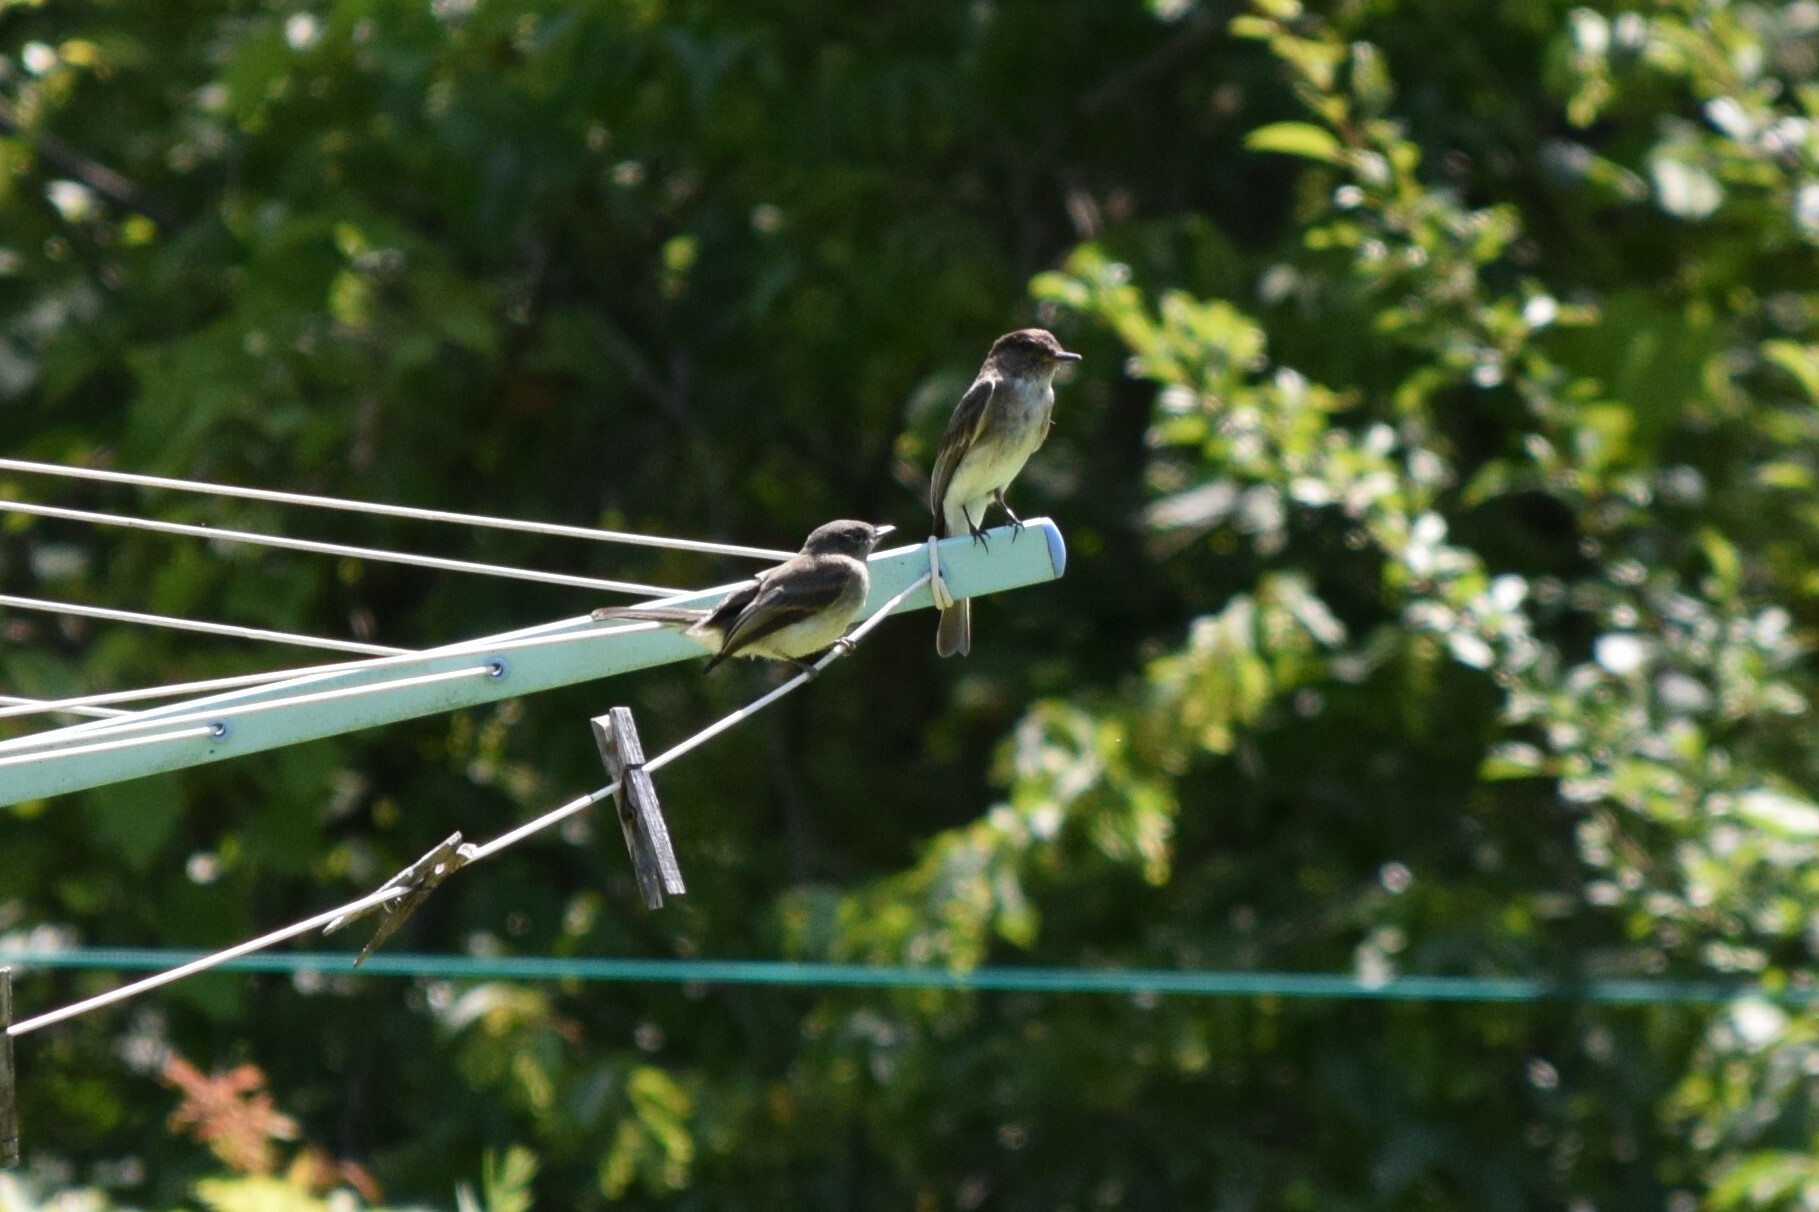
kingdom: Animalia
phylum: Chordata
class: Aves
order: Passeriformes
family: Tyrannidae
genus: Sayornis
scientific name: Sayornis phoebe
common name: Eastern phoebe
